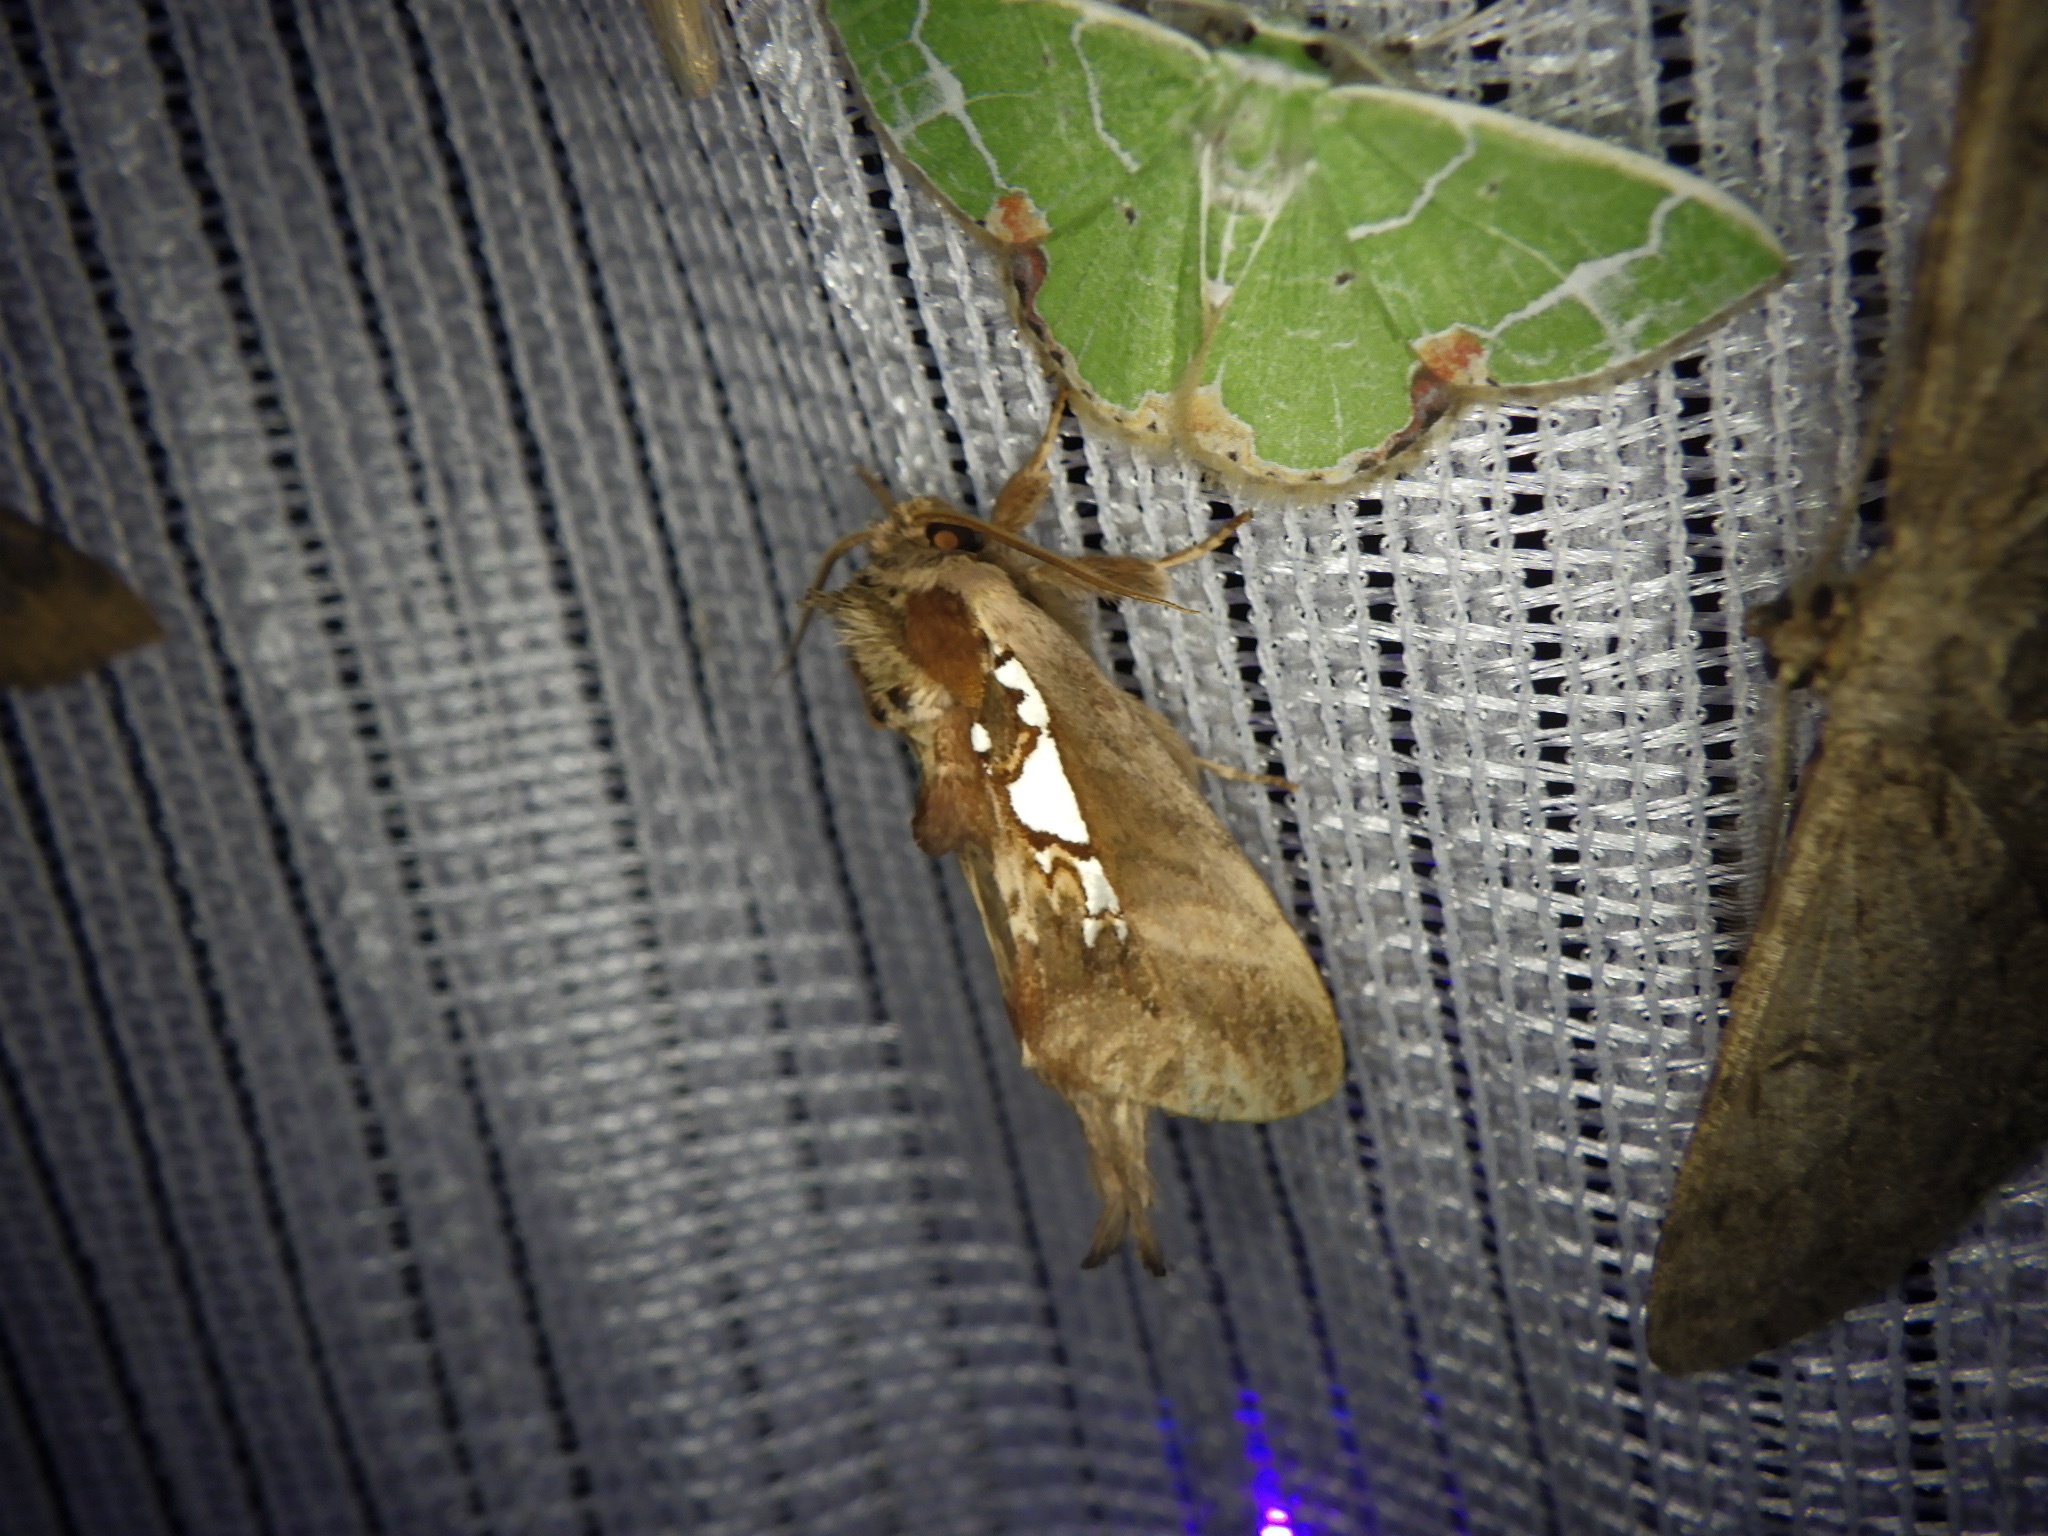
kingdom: Animalia
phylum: Arthropoda
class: Insecta
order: Lepidoptera
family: Notodontidae
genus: Spatalia
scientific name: Spatalia doerriesi
